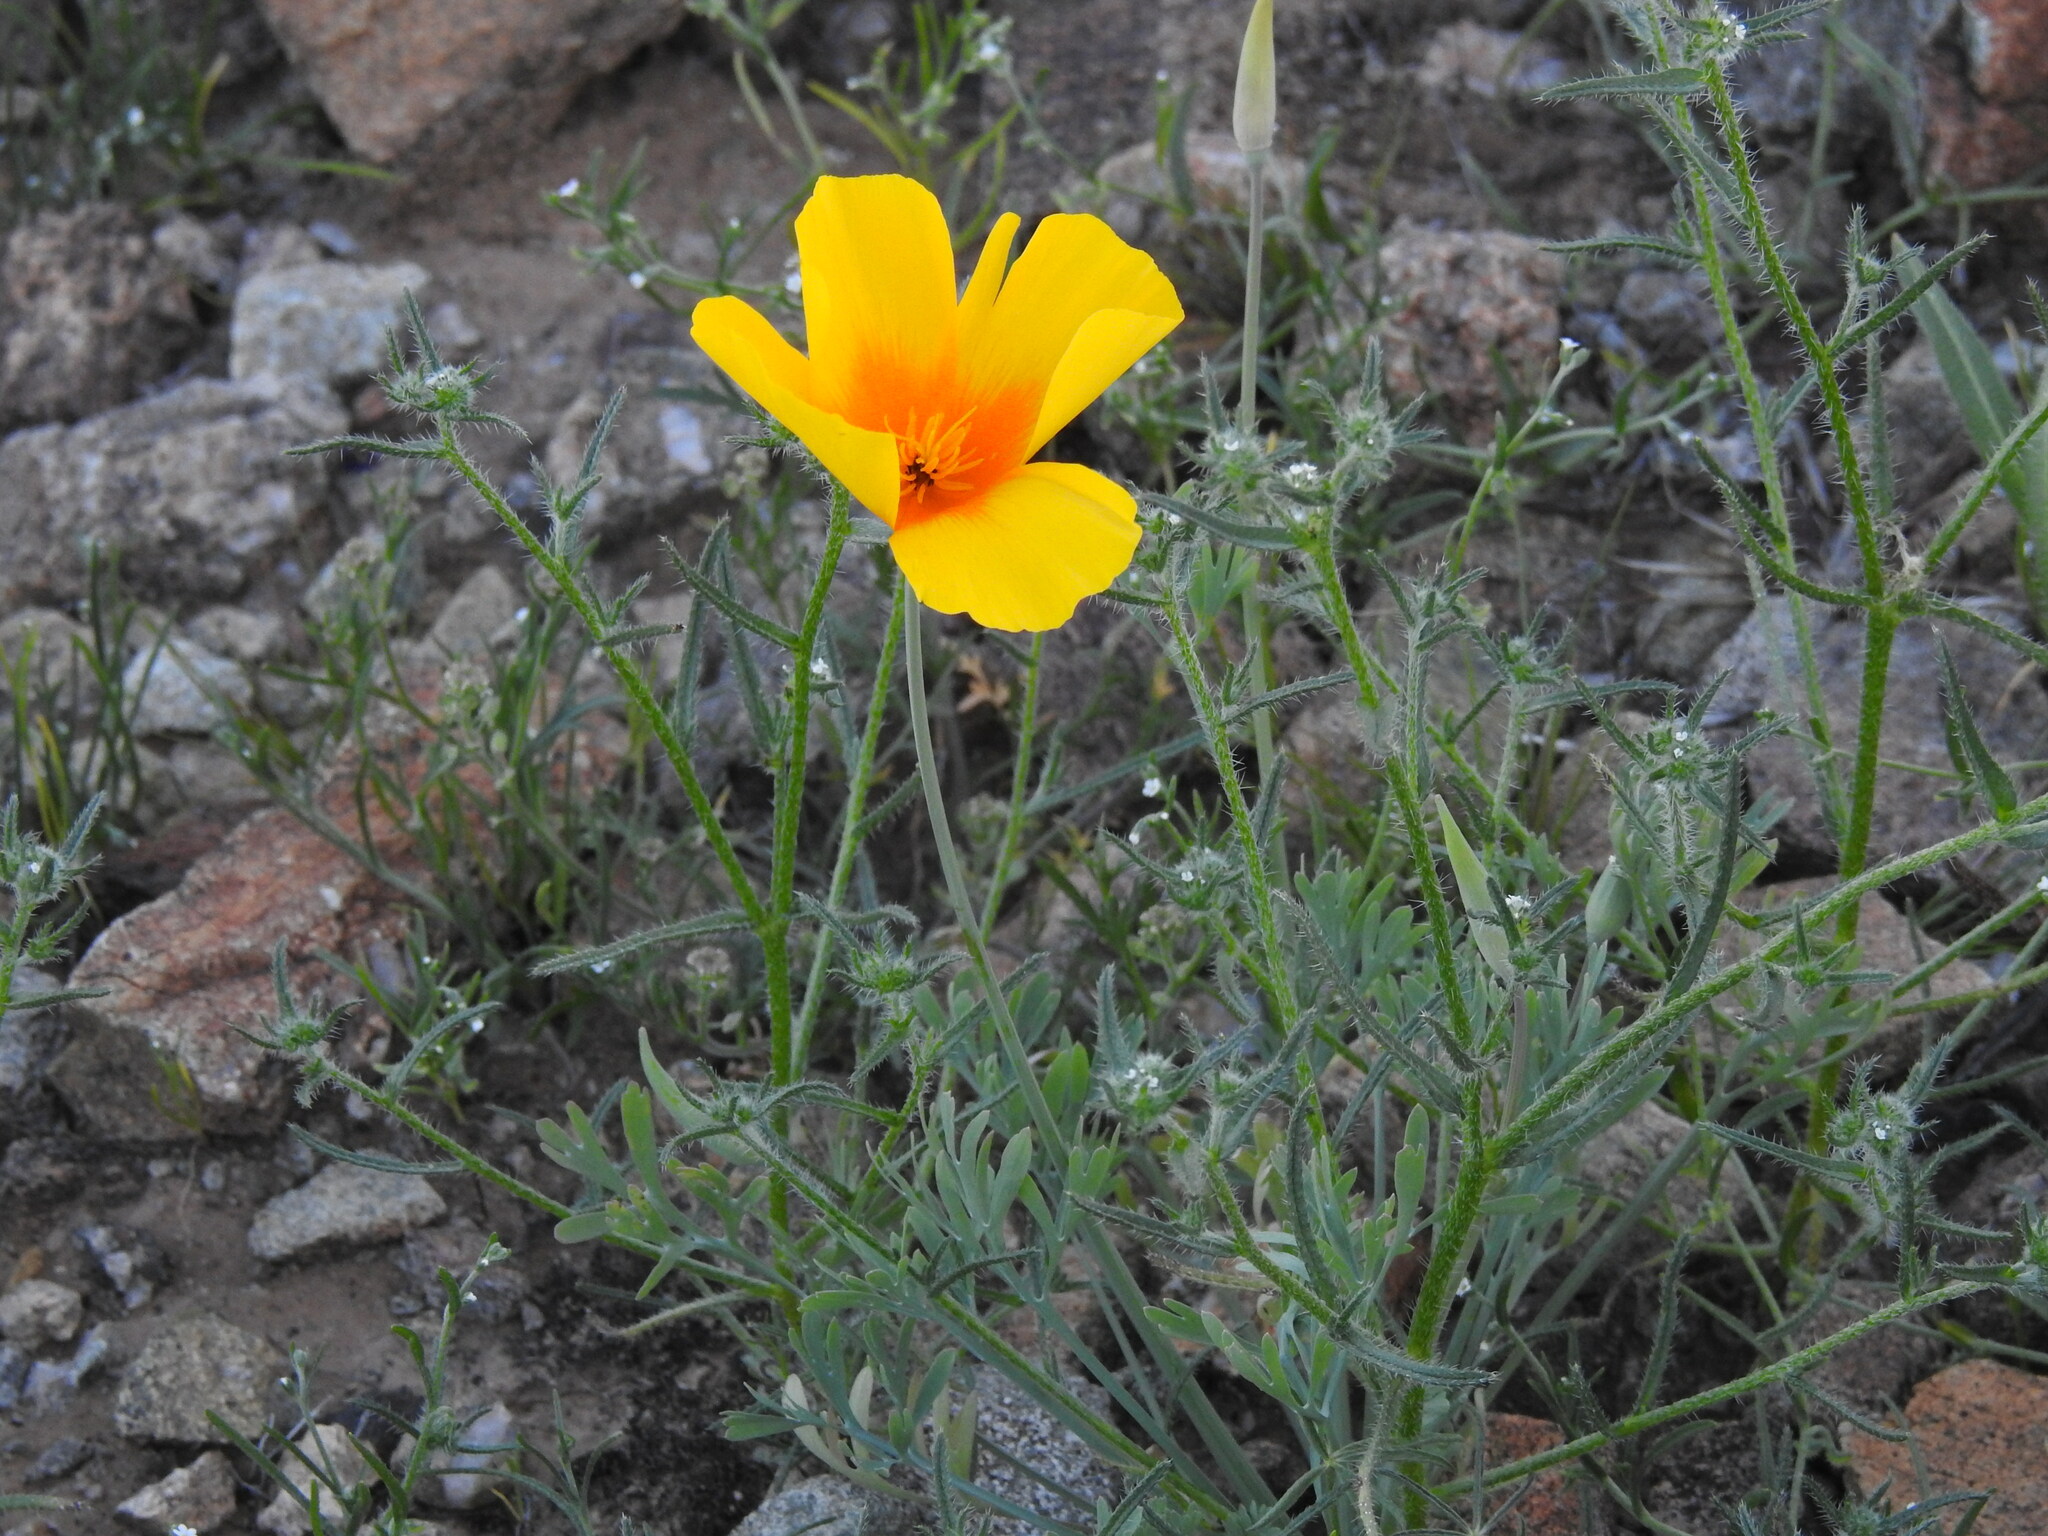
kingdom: Plantae
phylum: Tracheophyta
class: Magnoliopsida
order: Ranunculales
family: Papaveraceae
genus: Eschscholzia
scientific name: Eschscholzia californica
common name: California poppy
